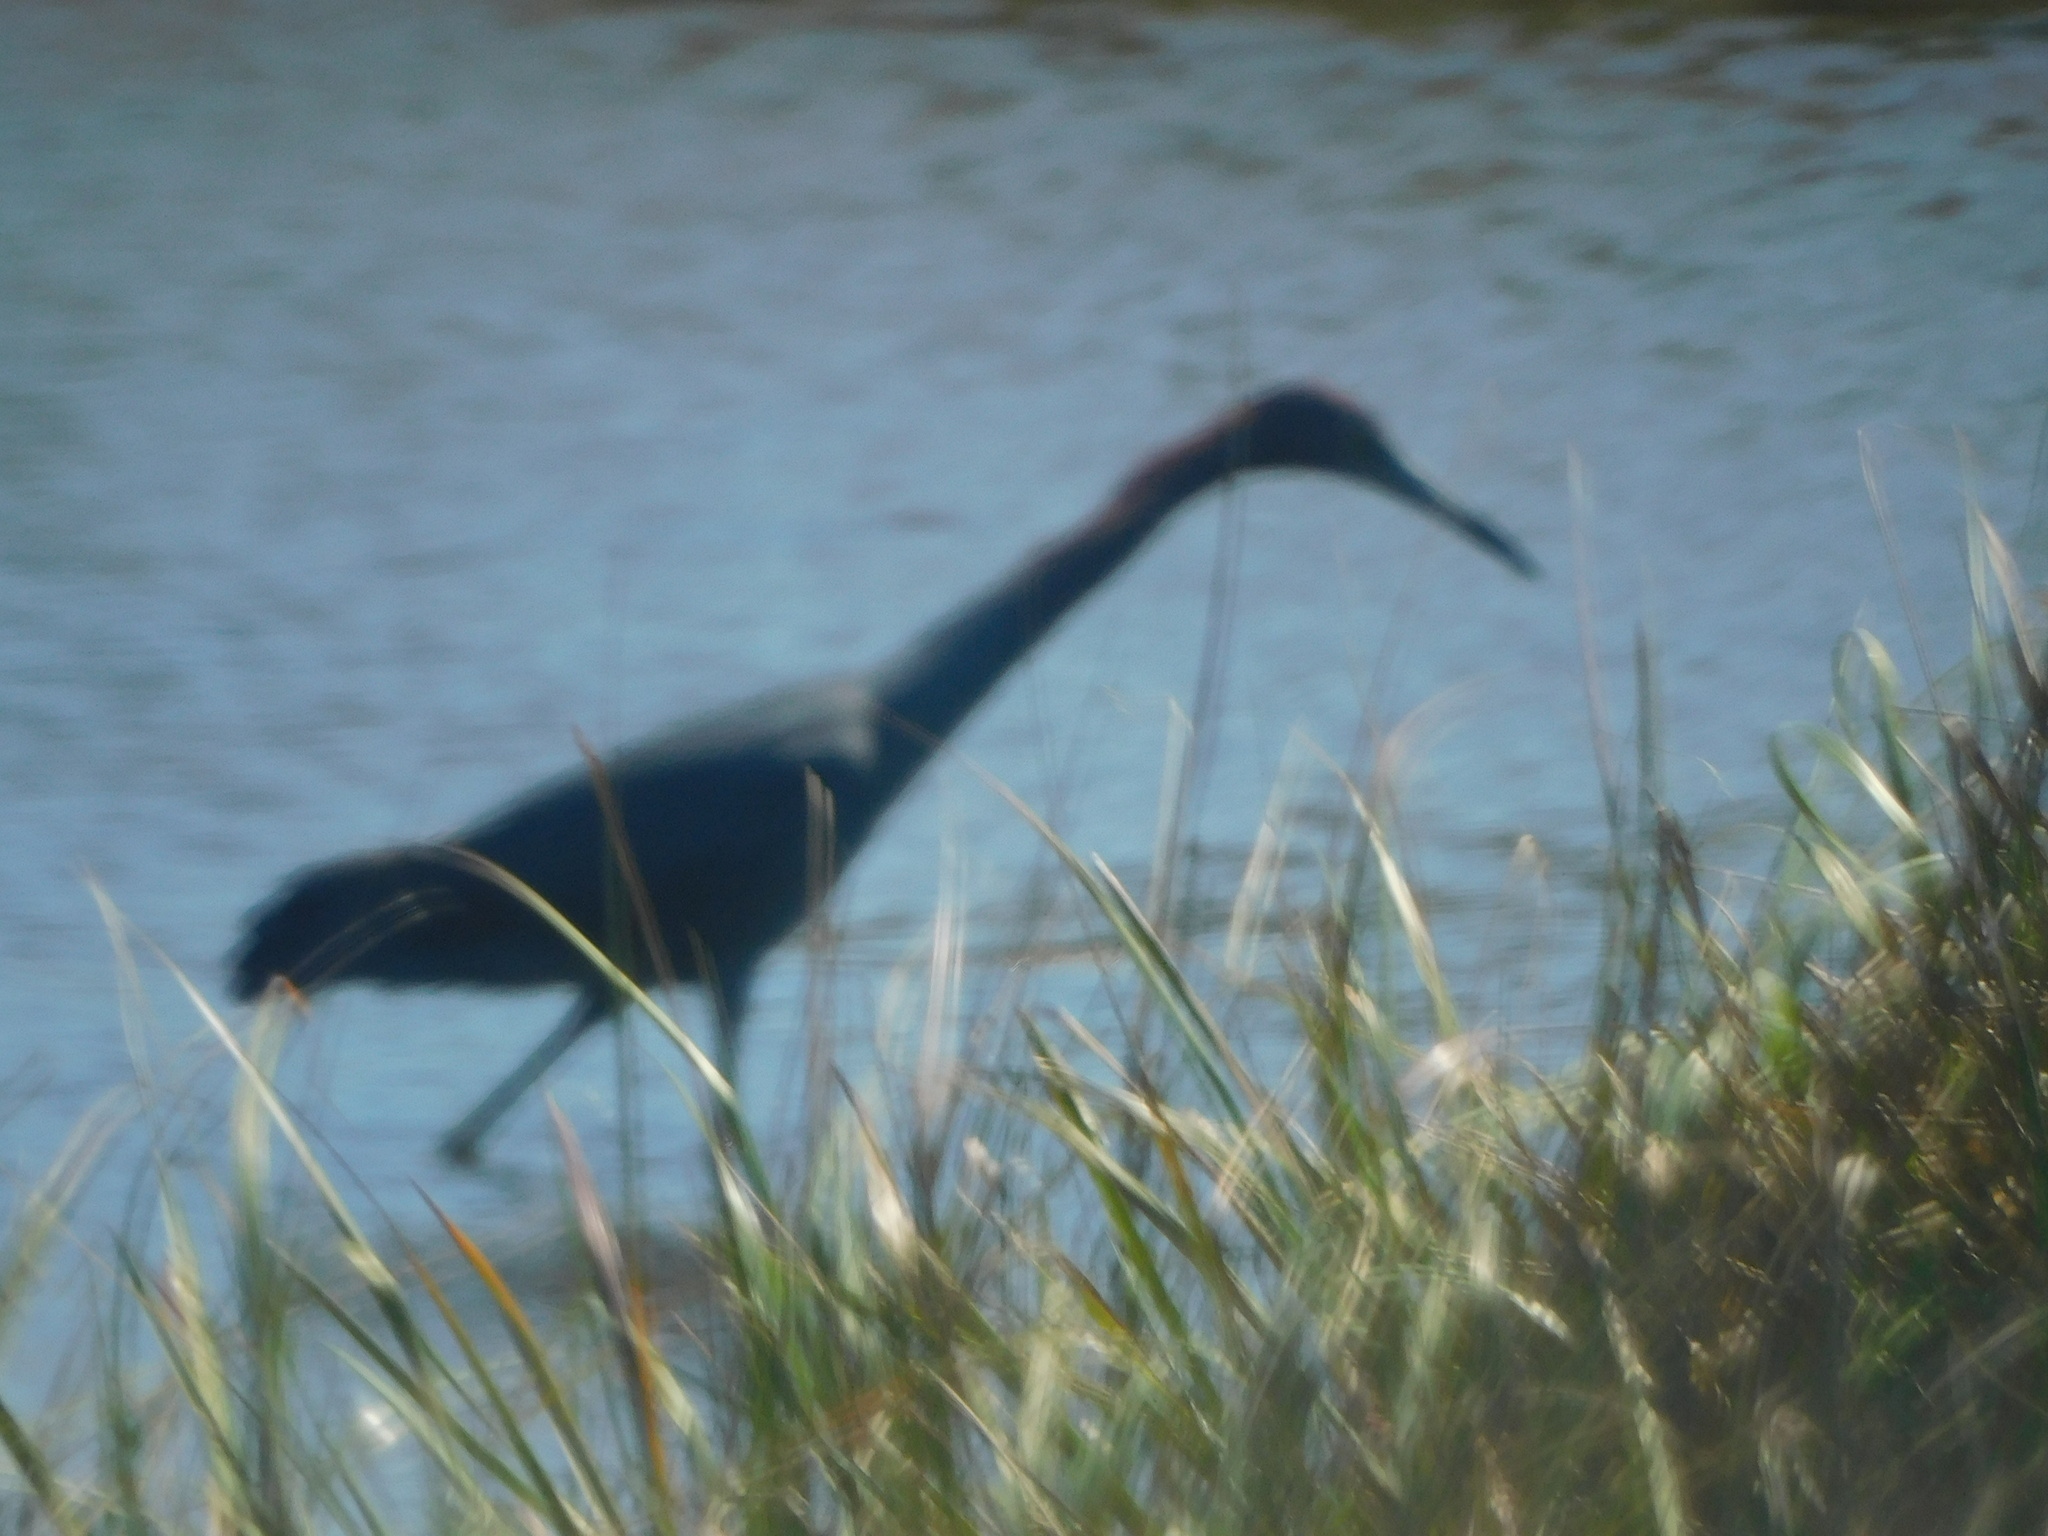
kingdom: Animalia
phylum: Chordata
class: Aves
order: Pelecaniformes
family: Ardeidae
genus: Egretta
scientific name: Egretta caerulea
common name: Little blue heron
